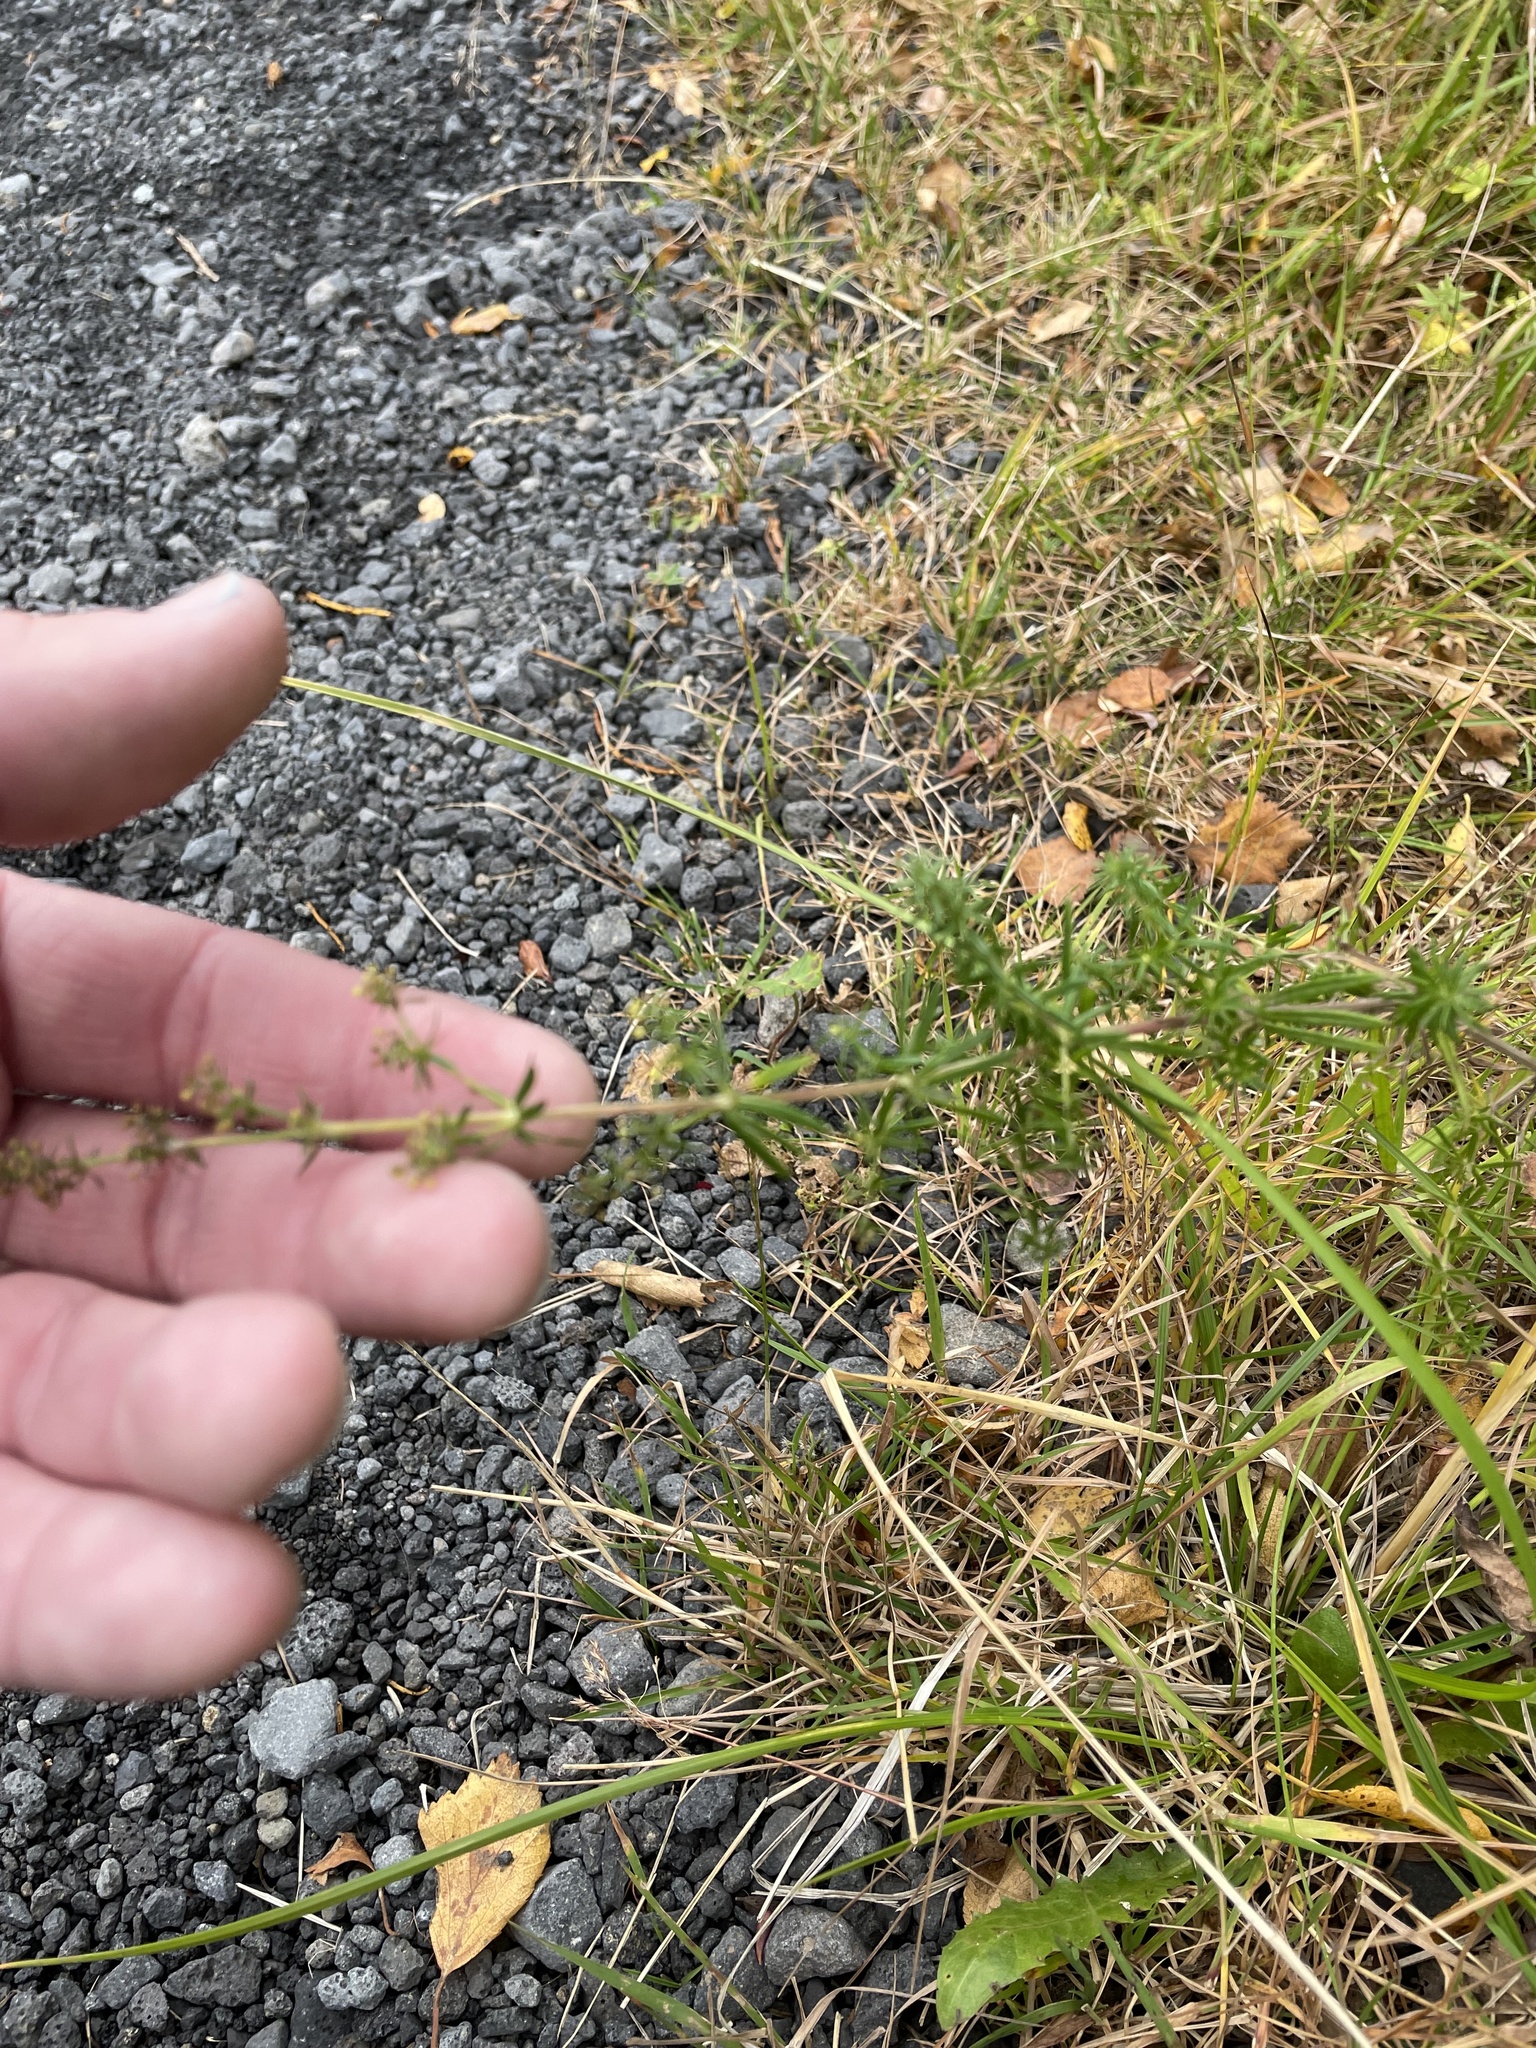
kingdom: Plantae
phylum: Tracheophyta
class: Magnoliopsida
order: Gentianales
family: Rubiaceae
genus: Galium
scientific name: Galium verum
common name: Lady's bedstraw
